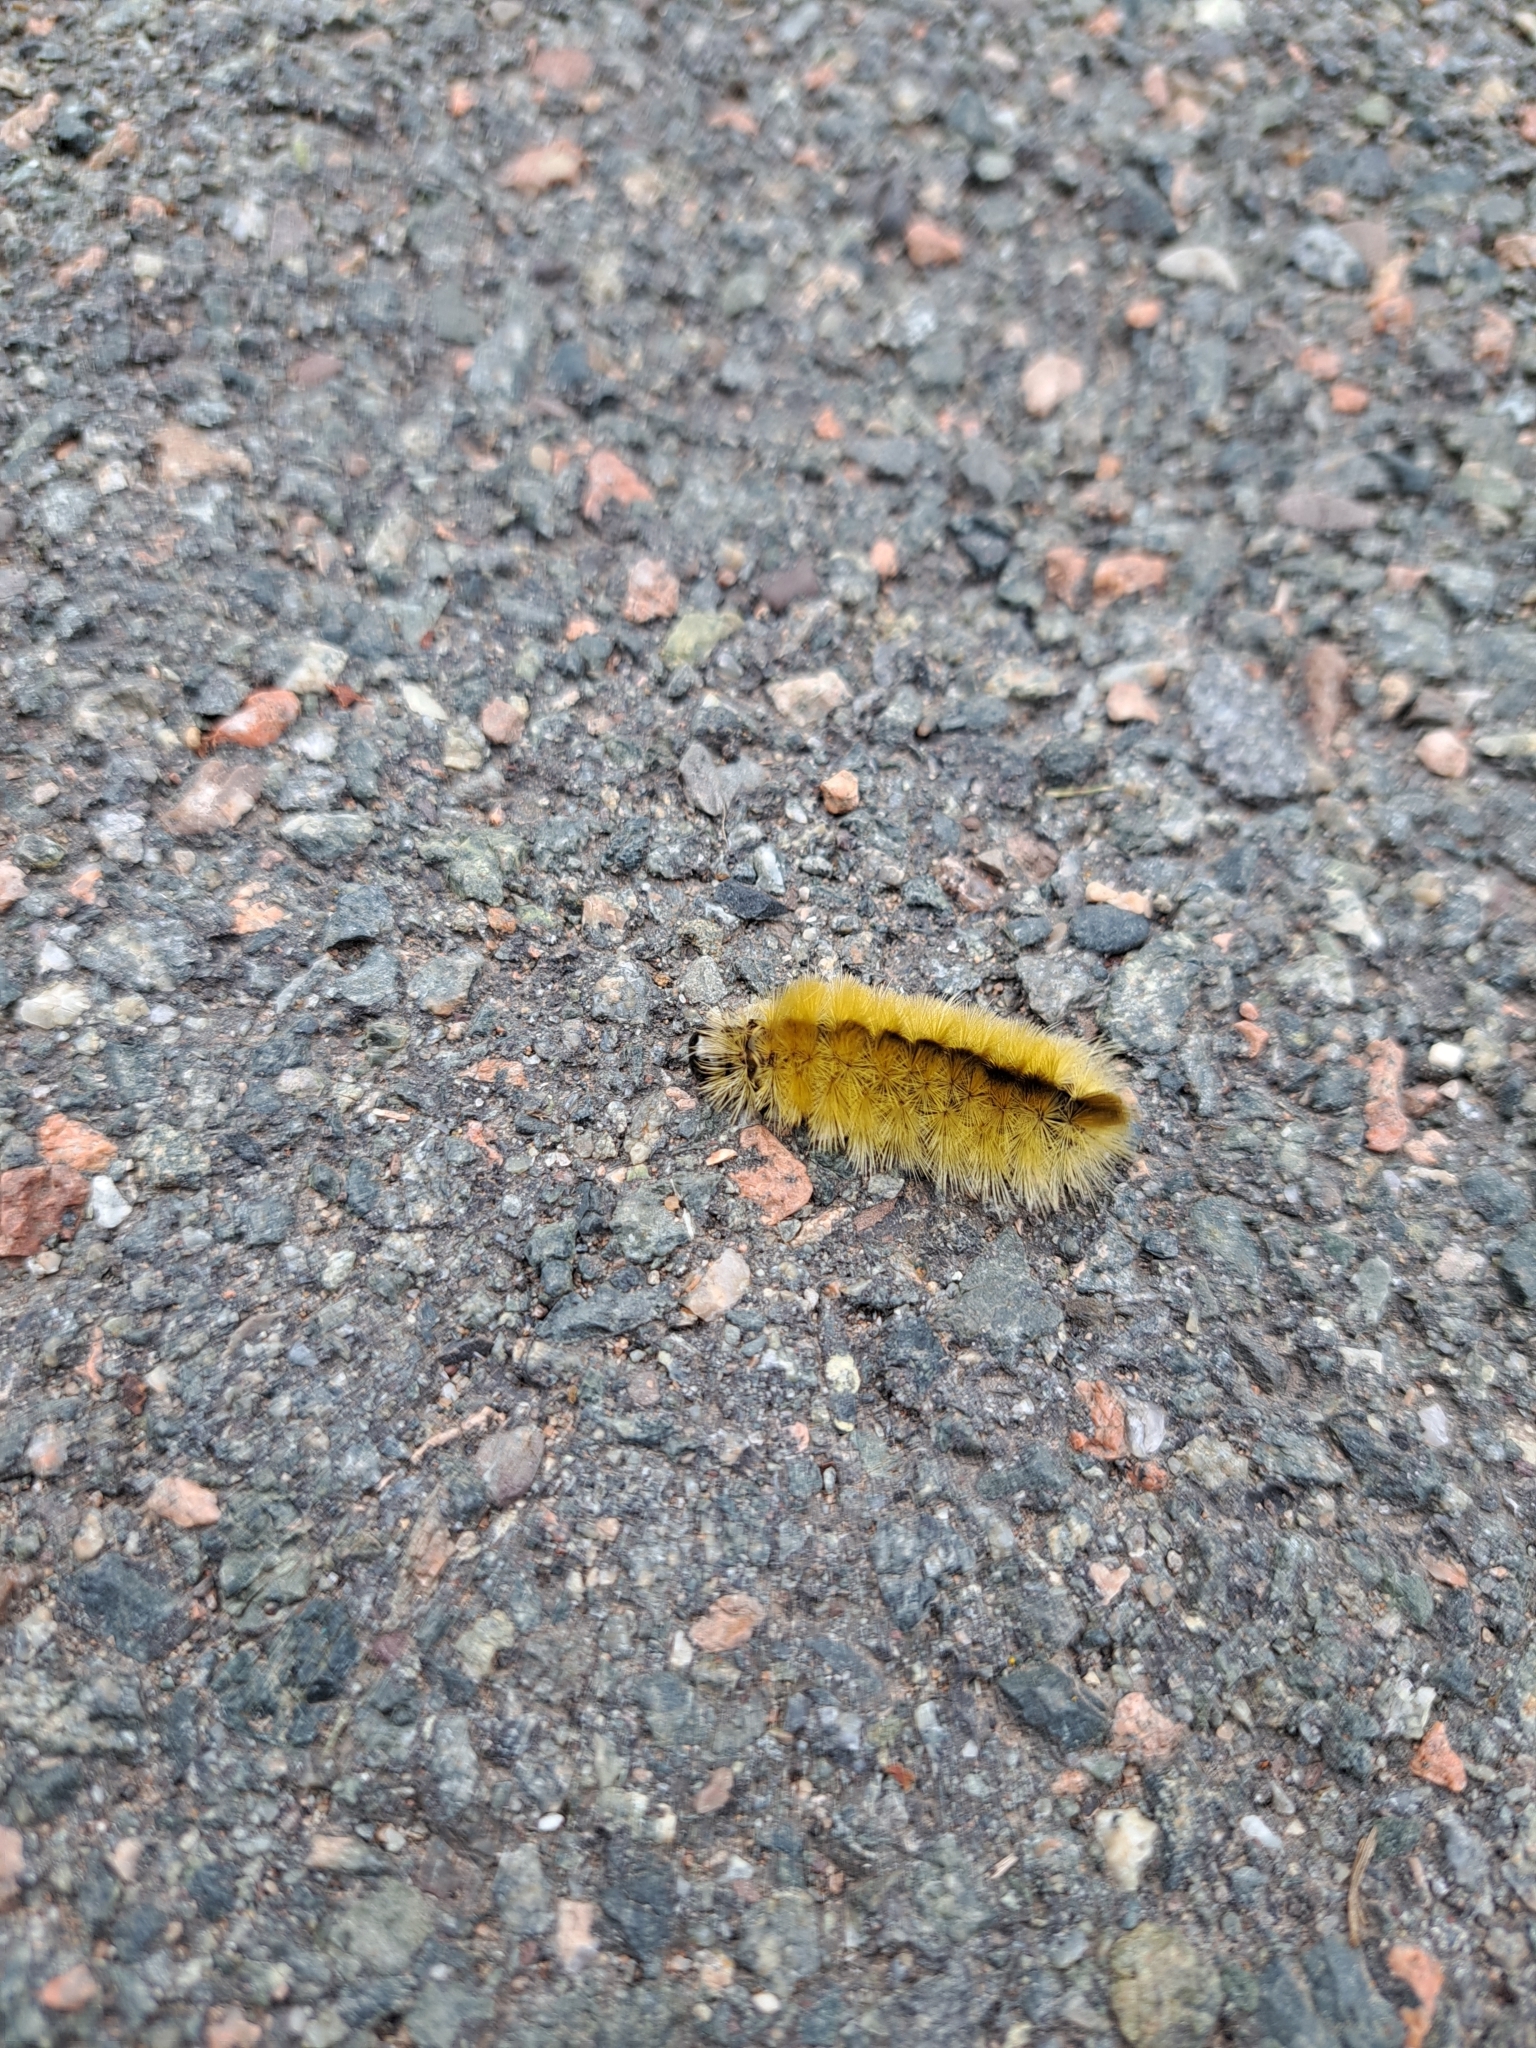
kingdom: Animalia
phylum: Arthropoda
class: Insecta
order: Lepidoptera
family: Erebidae
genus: Halysidota
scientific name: Halysidota tessellaris
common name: Banded tussock moth
